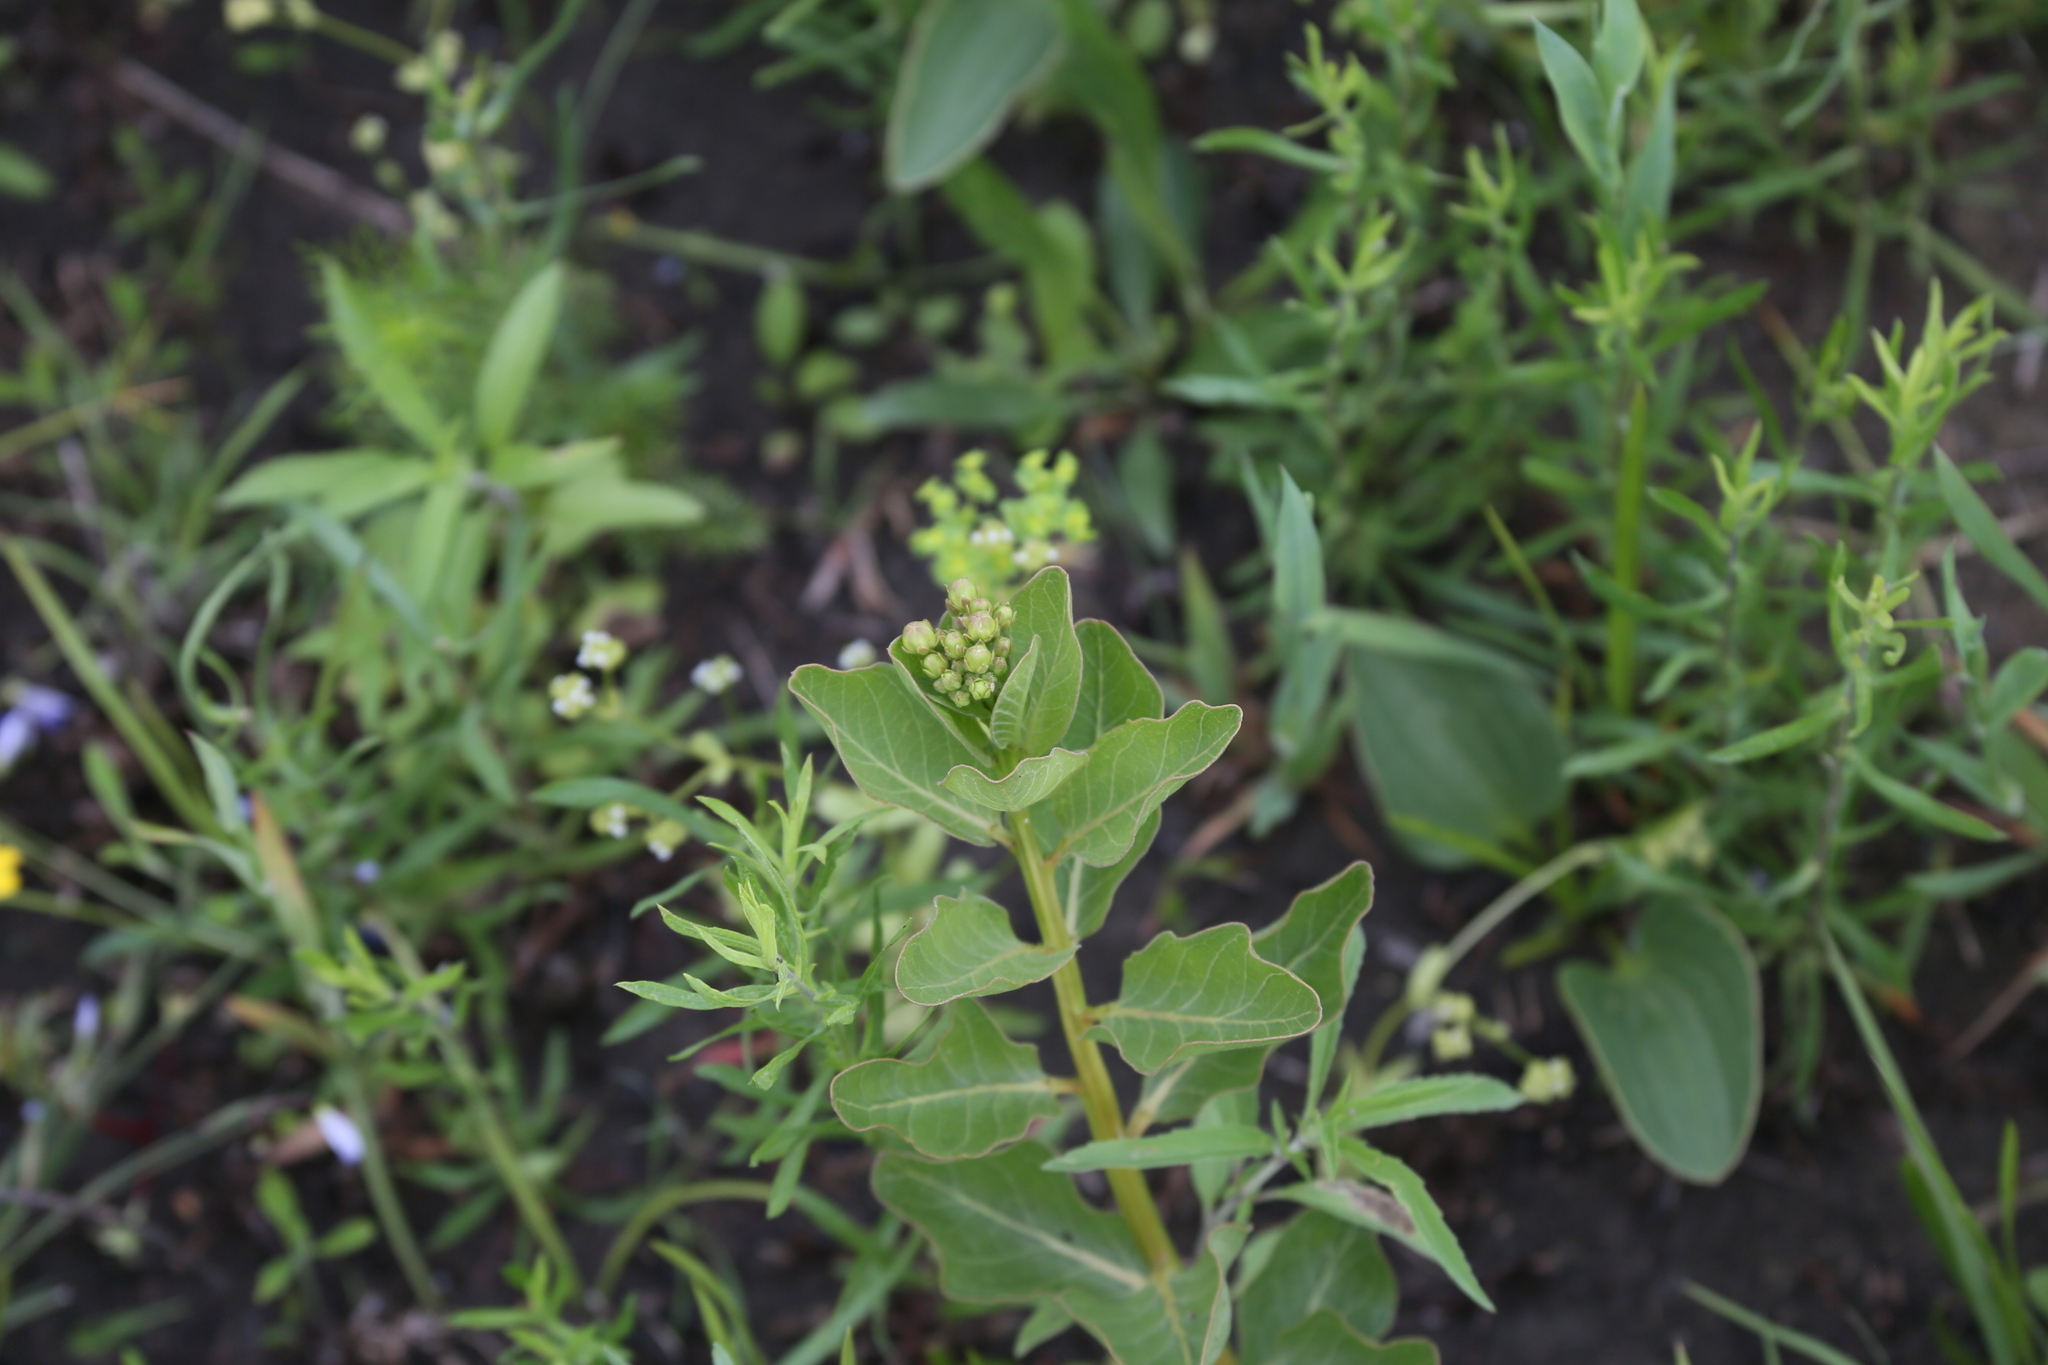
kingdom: Plantae
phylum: Tracheophyta
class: Magnoliopsida
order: Gentianales
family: Apocynaceae
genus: Asclepias
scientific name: Asclepias viridis
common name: Antelope-horns
